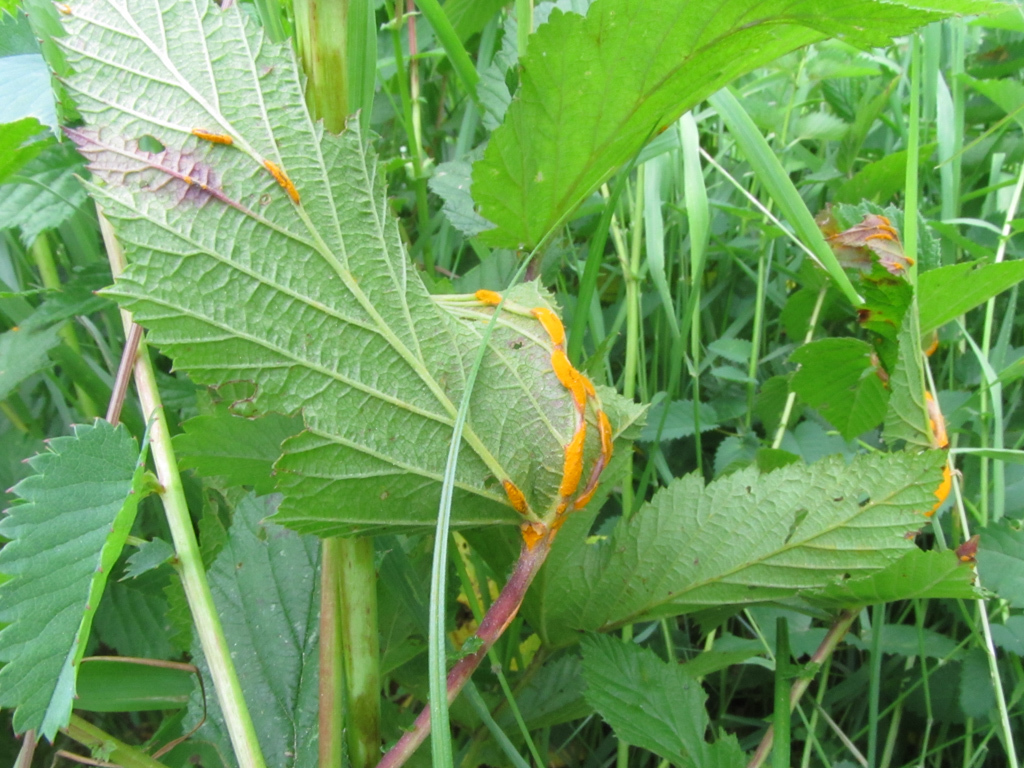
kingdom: Fungi
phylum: Basidiomycota
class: Pucciniomycetes
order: Pucciniales
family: Raveneliaceae
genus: Triphragmium
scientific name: Triphragmium ulmariae
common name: Meadowsweet rust
